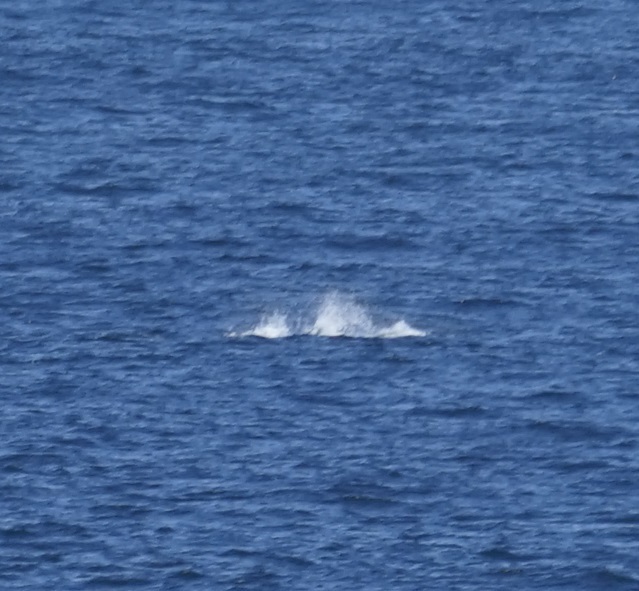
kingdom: Animalia
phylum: Chordata
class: Mammalia
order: Cetacea
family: Balaenopteridae
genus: Megaptera
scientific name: Megaptera novaeangliae
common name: Humpback whale
